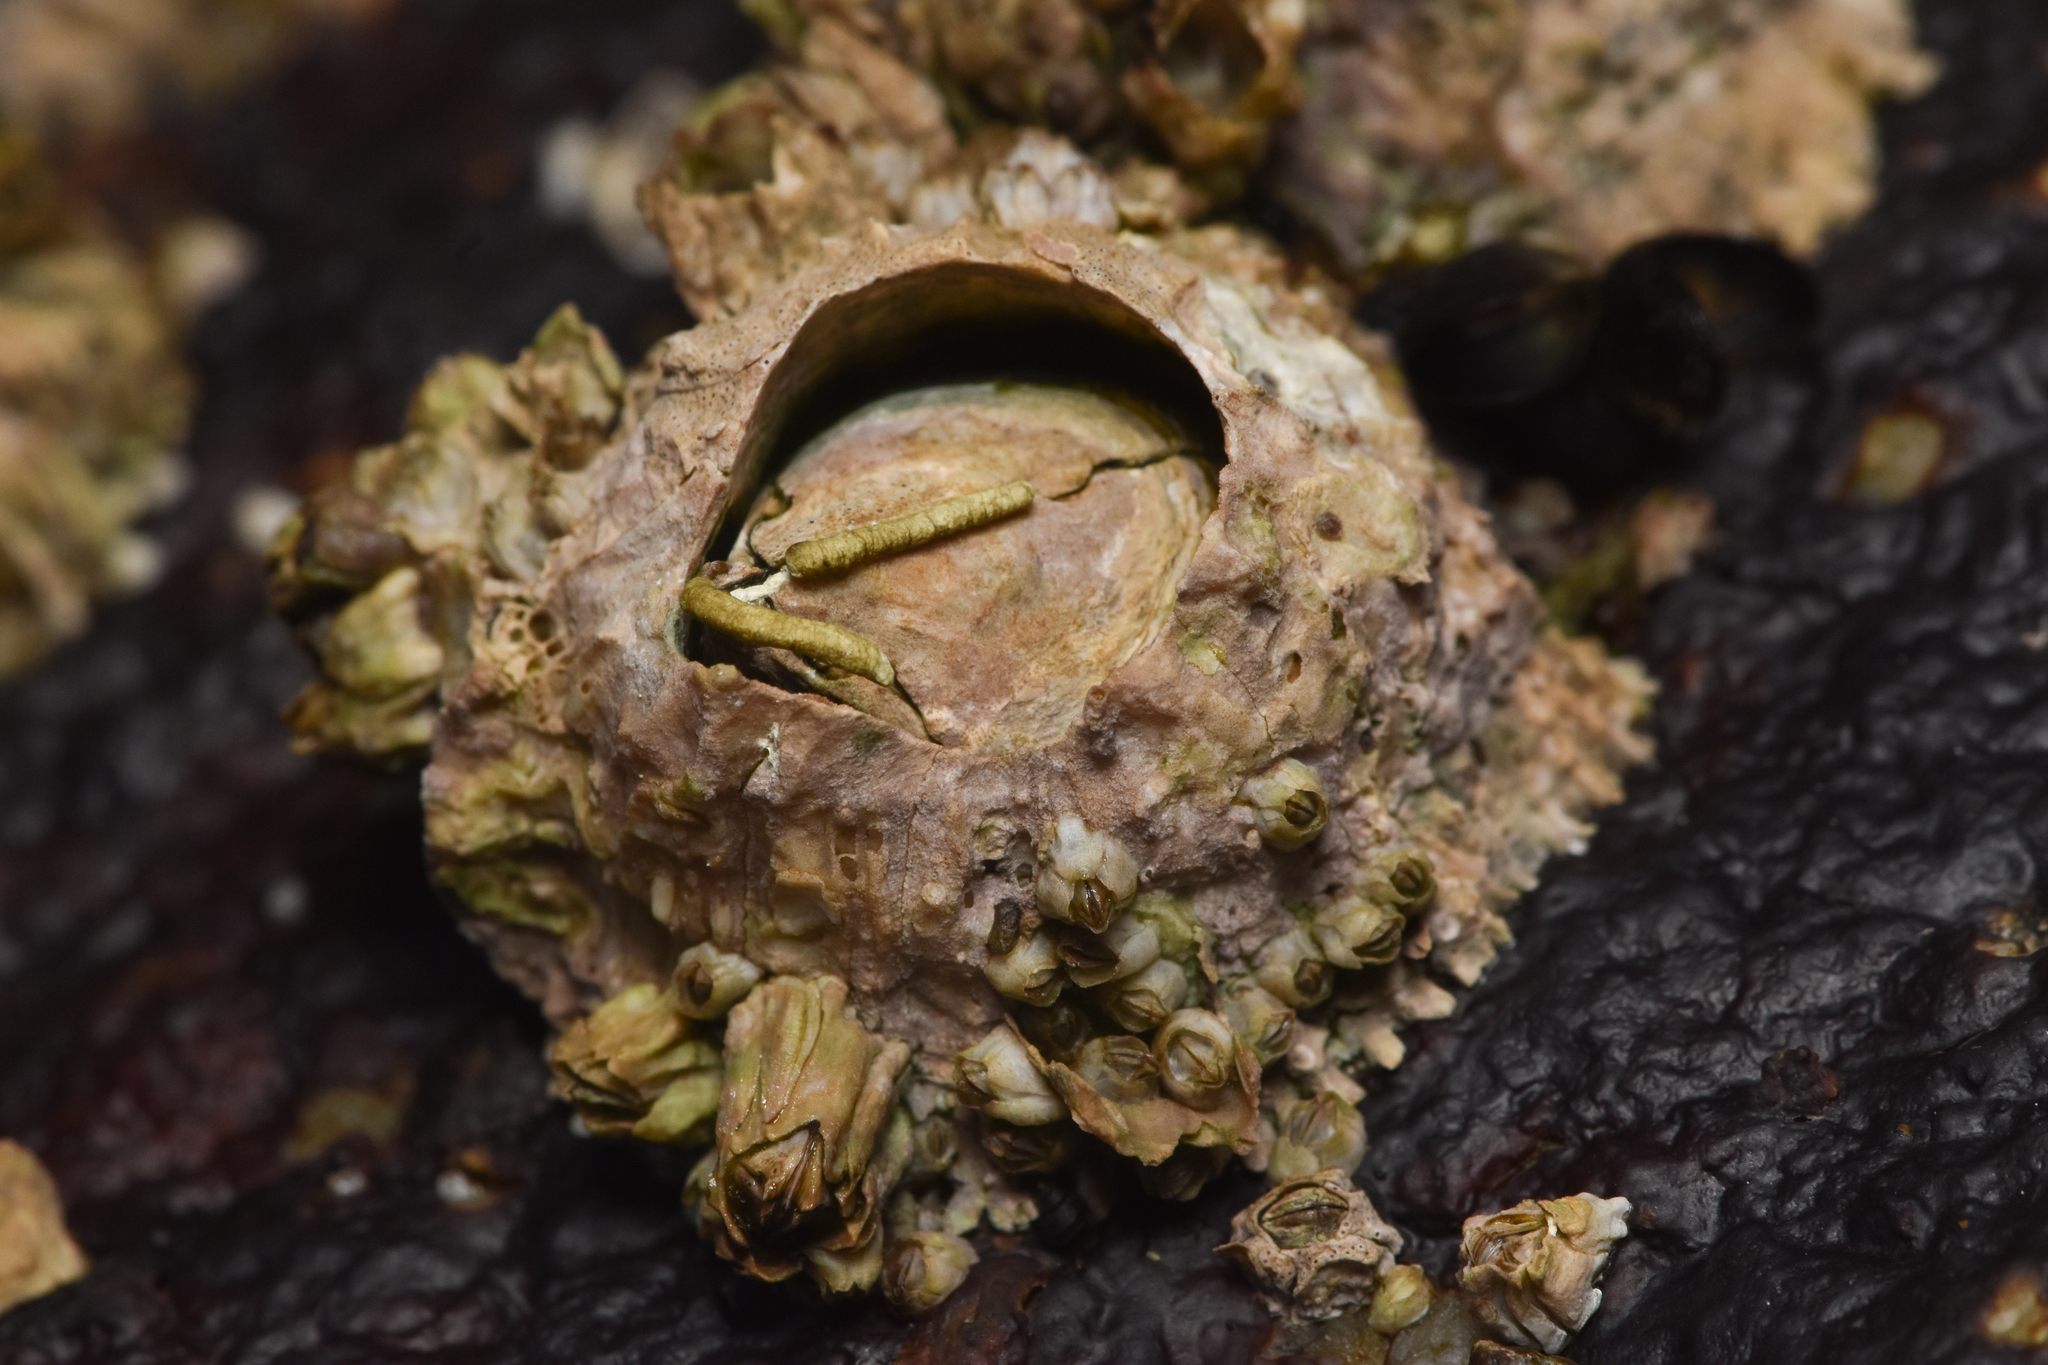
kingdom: Animalia
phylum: Arthropoda
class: Maxillopoda
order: Sessilia
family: Archaeobalanidae
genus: Semibalanus
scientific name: Semibalanus cariosus
